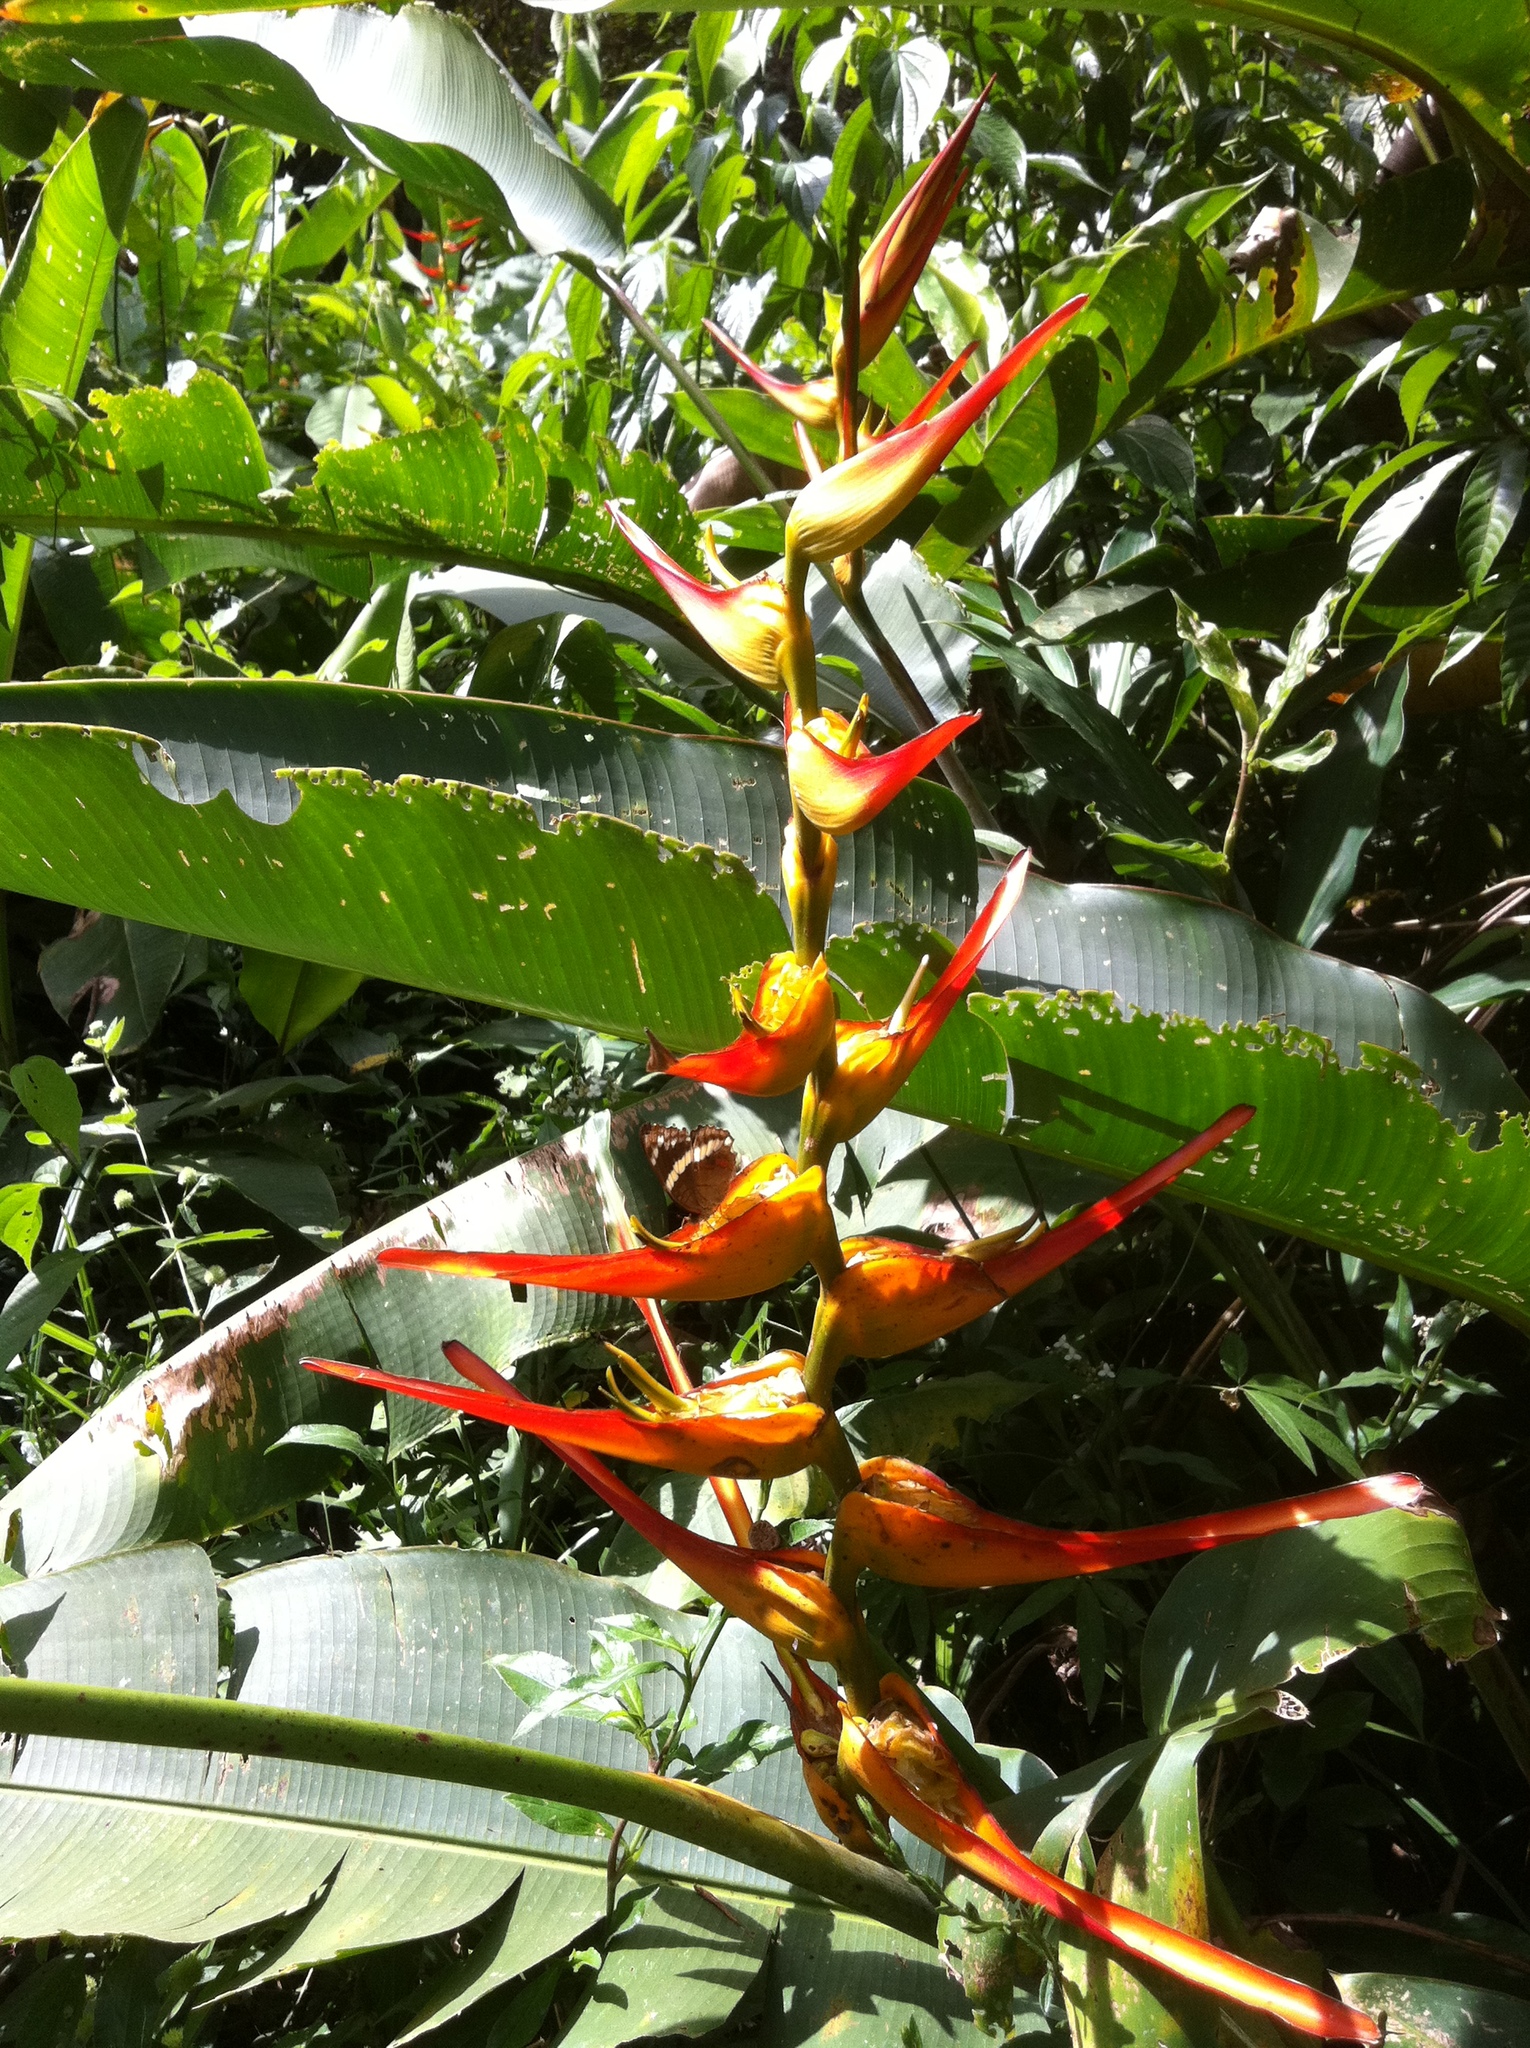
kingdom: Plantae
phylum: Tracheophyta
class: Liliopsida
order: Zingiberales
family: Heliconiaceae
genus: Heliconia
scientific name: Heliconia latispatha
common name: Expanded lobsterclaw
